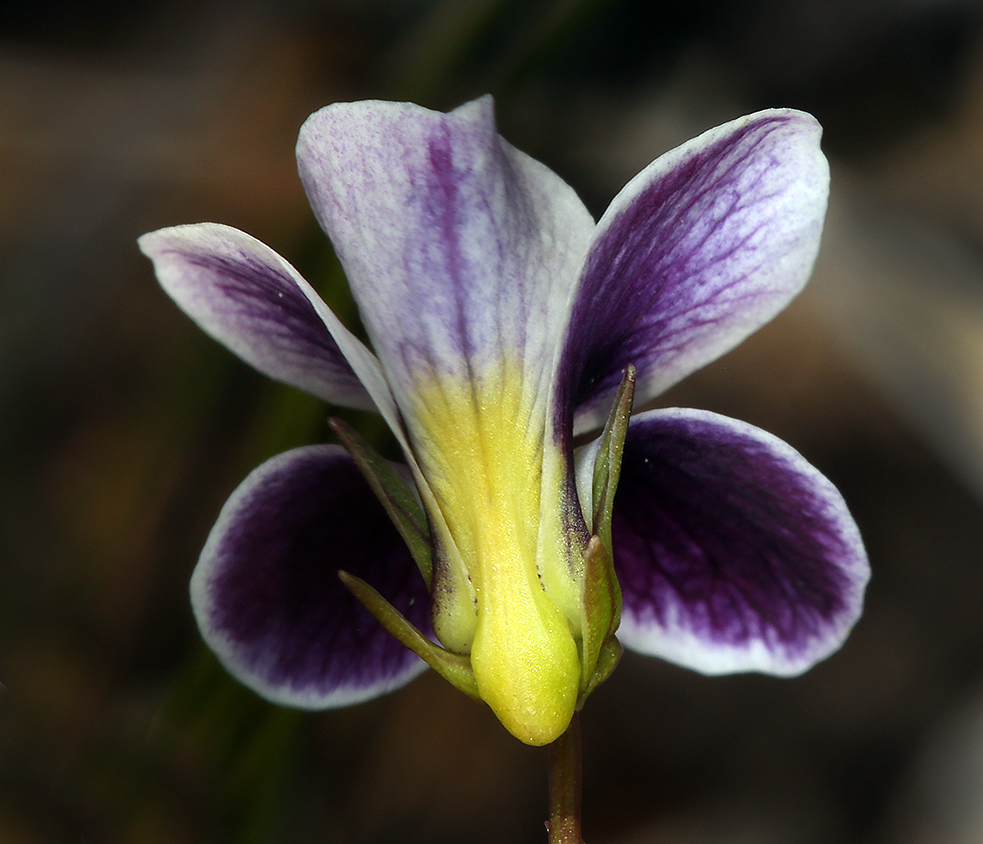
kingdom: Plantae
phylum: Tracheophyta
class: Magnoliopsida
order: Malpighiales
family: Violaceae
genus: Viola
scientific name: Viola cuneata
